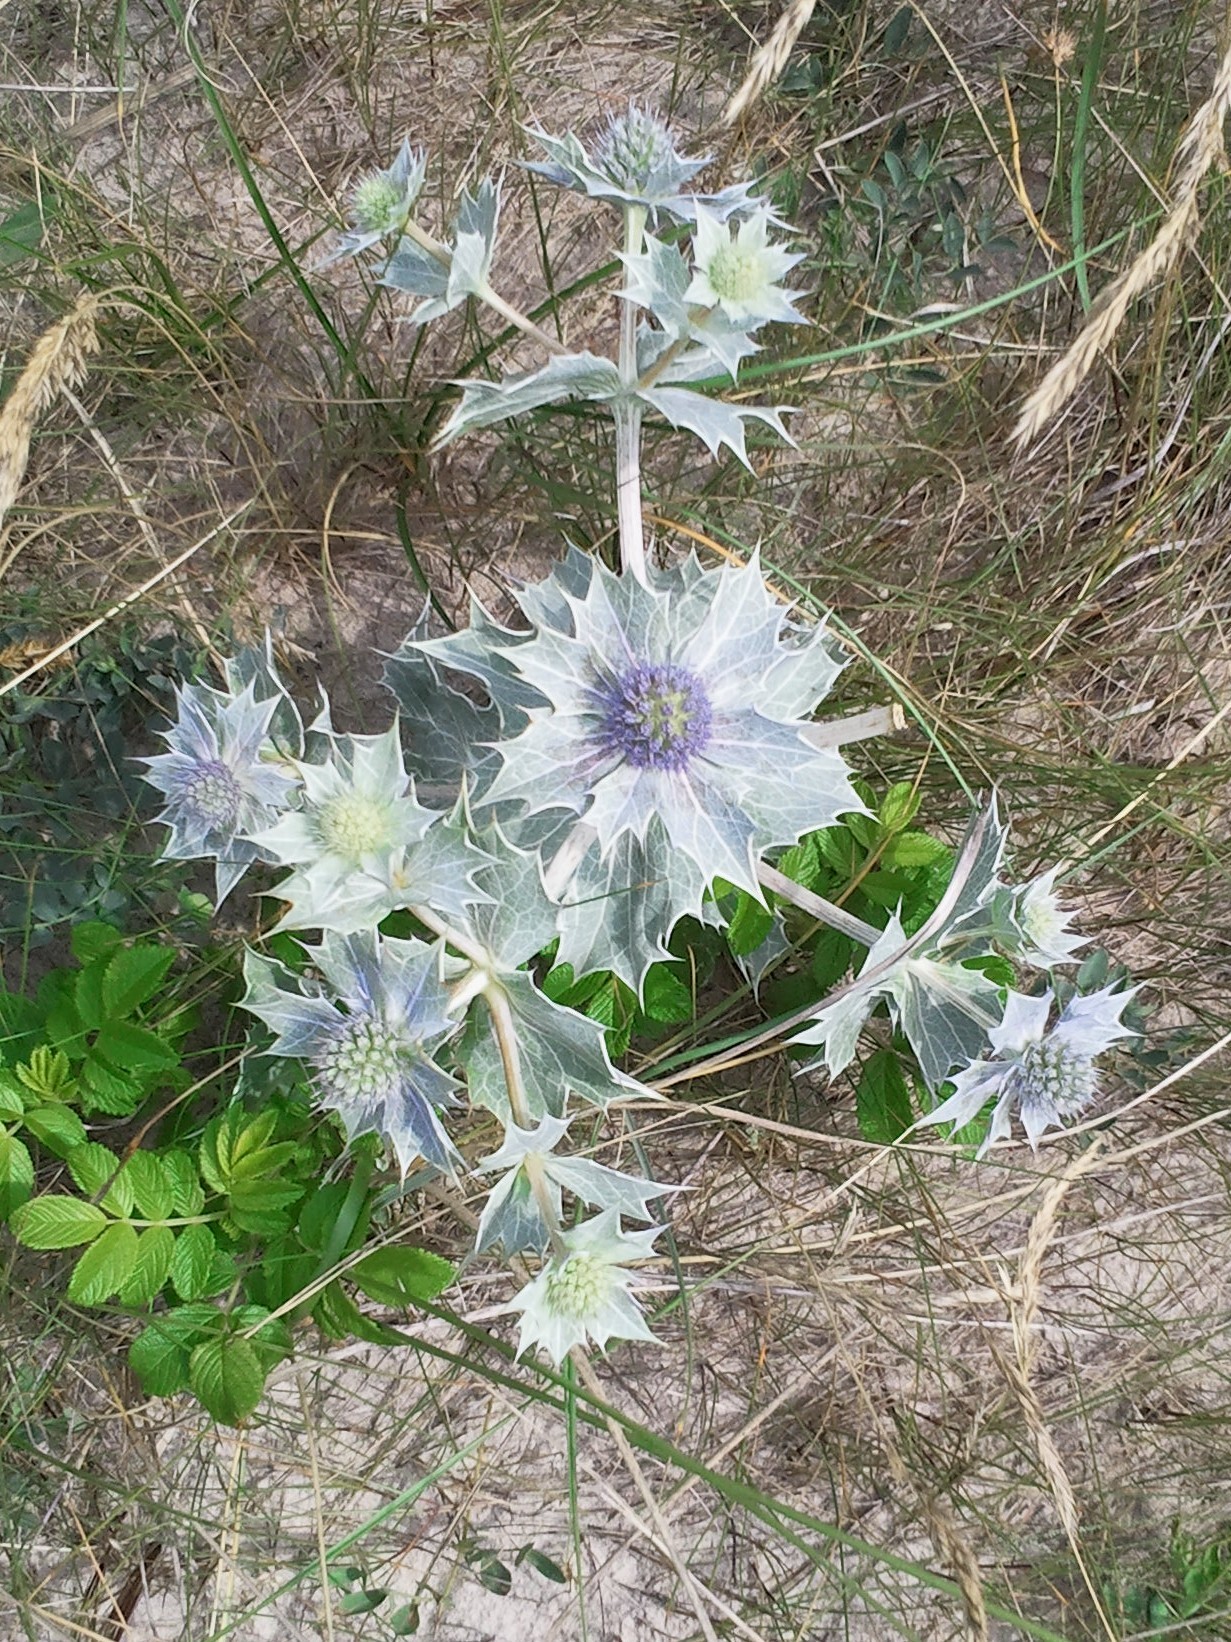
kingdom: Plantae
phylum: Tracheophyta
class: Magnoliopsida
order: Apiales
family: Apiaceae
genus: Eryngium
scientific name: Eryngium maritimum
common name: Sea-holly
